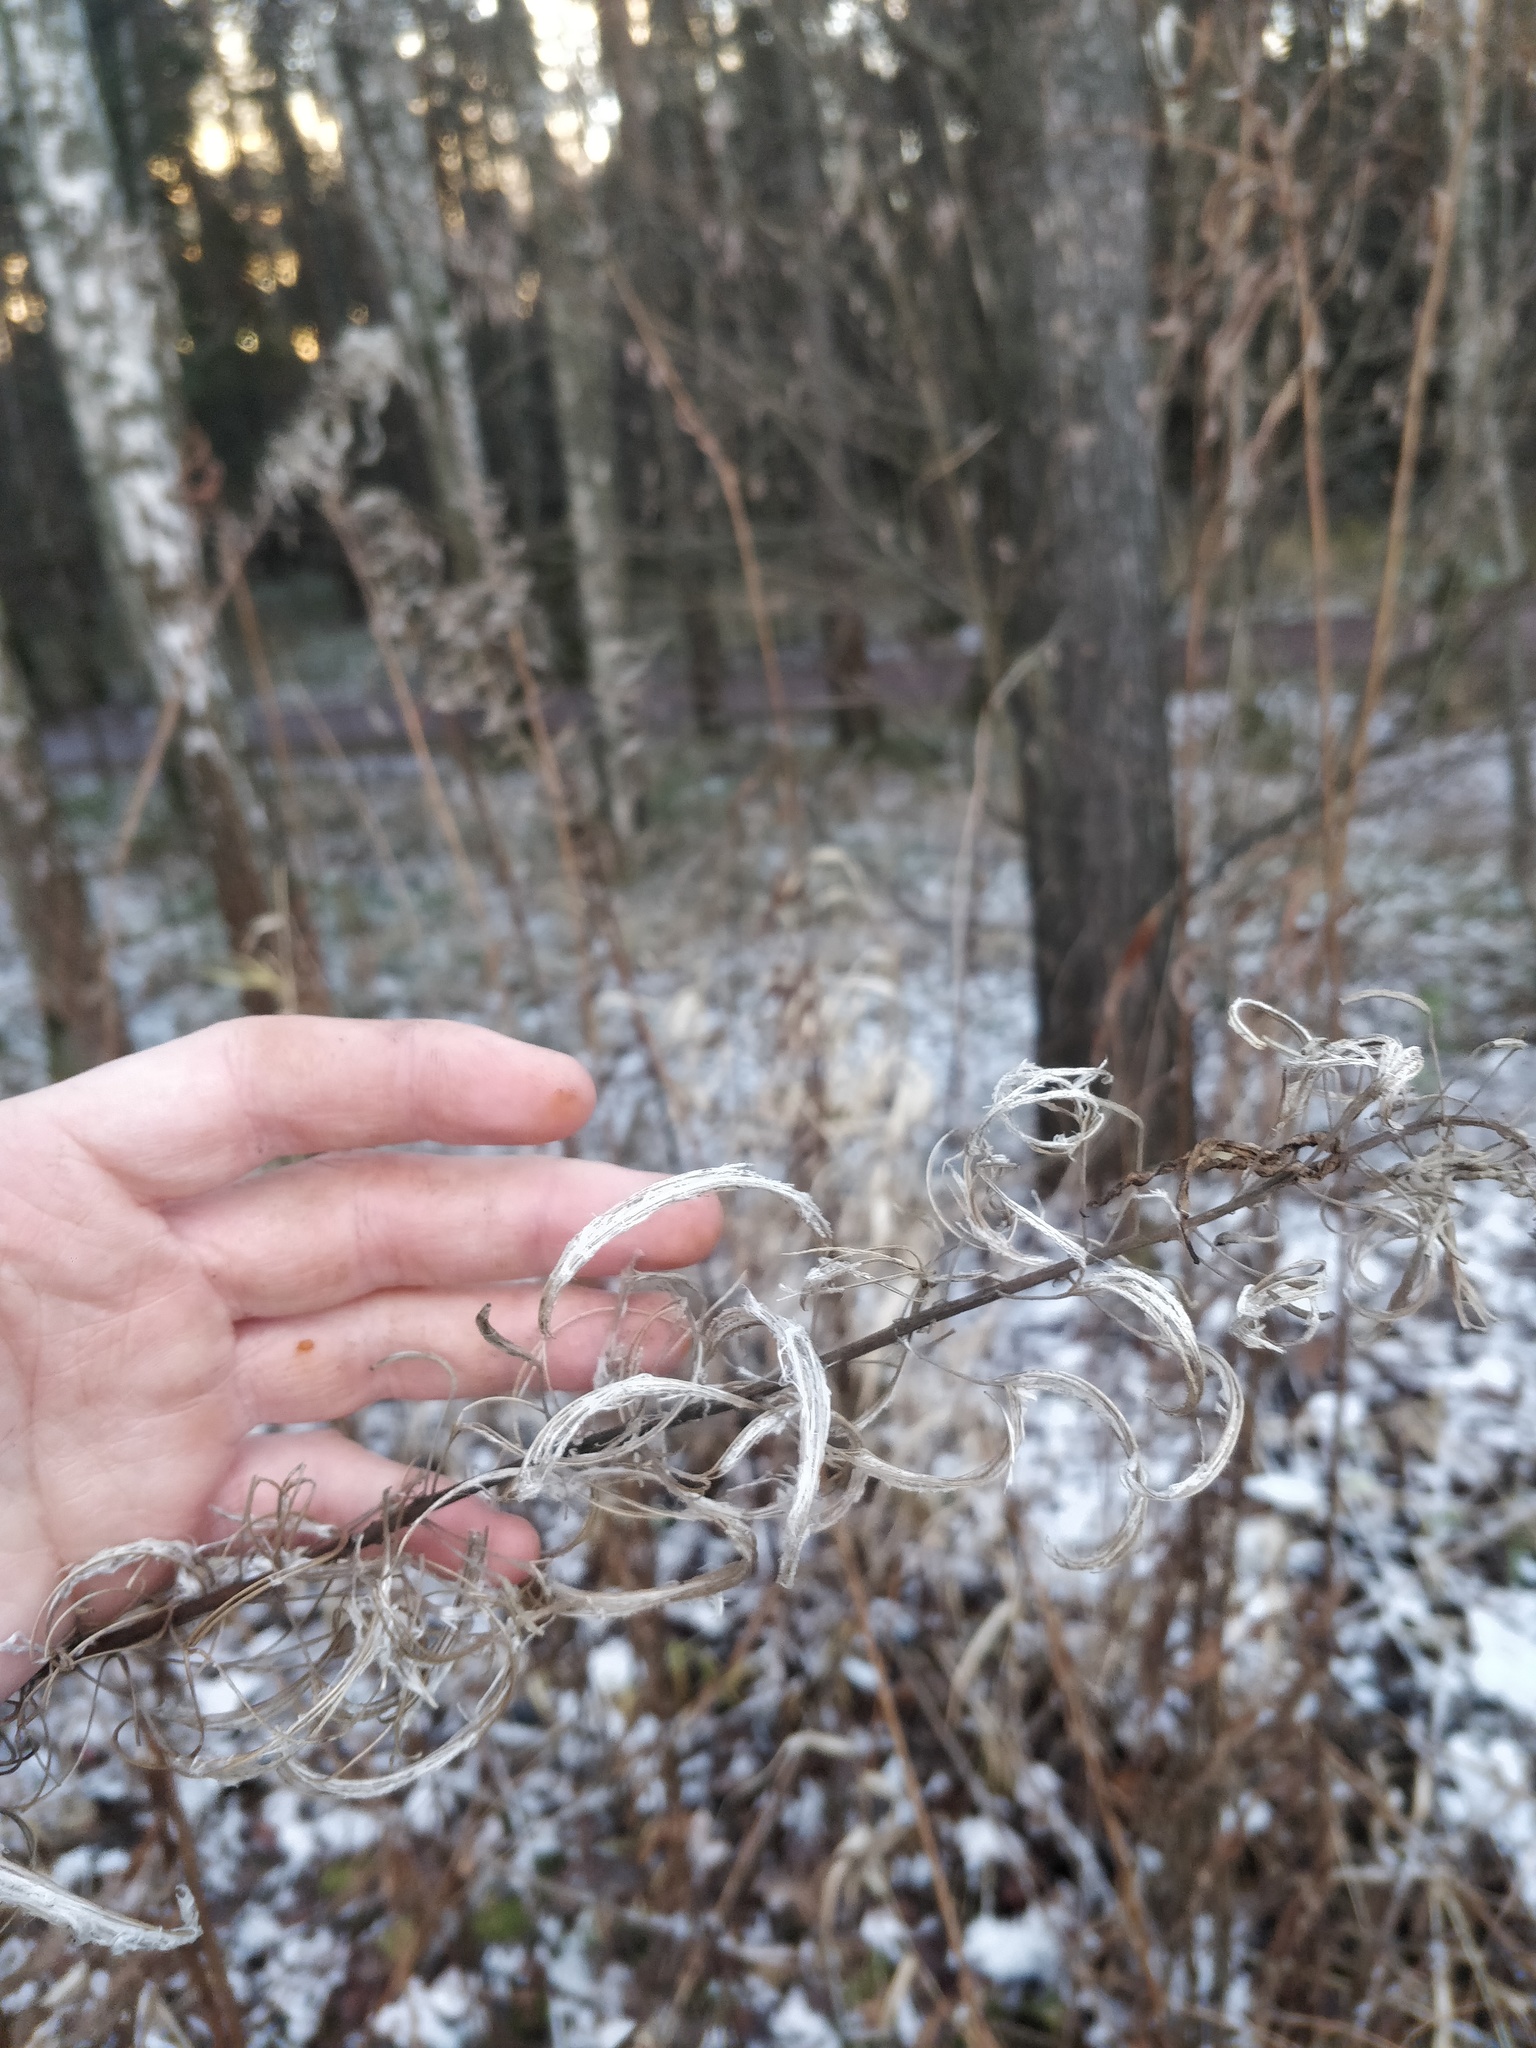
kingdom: Plantae
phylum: Tracheophyta
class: Magnoliopsida
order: Myrtales
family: Onagraceae
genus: Chamaenerion
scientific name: Chamaenerion angustifolium
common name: Fireweed
